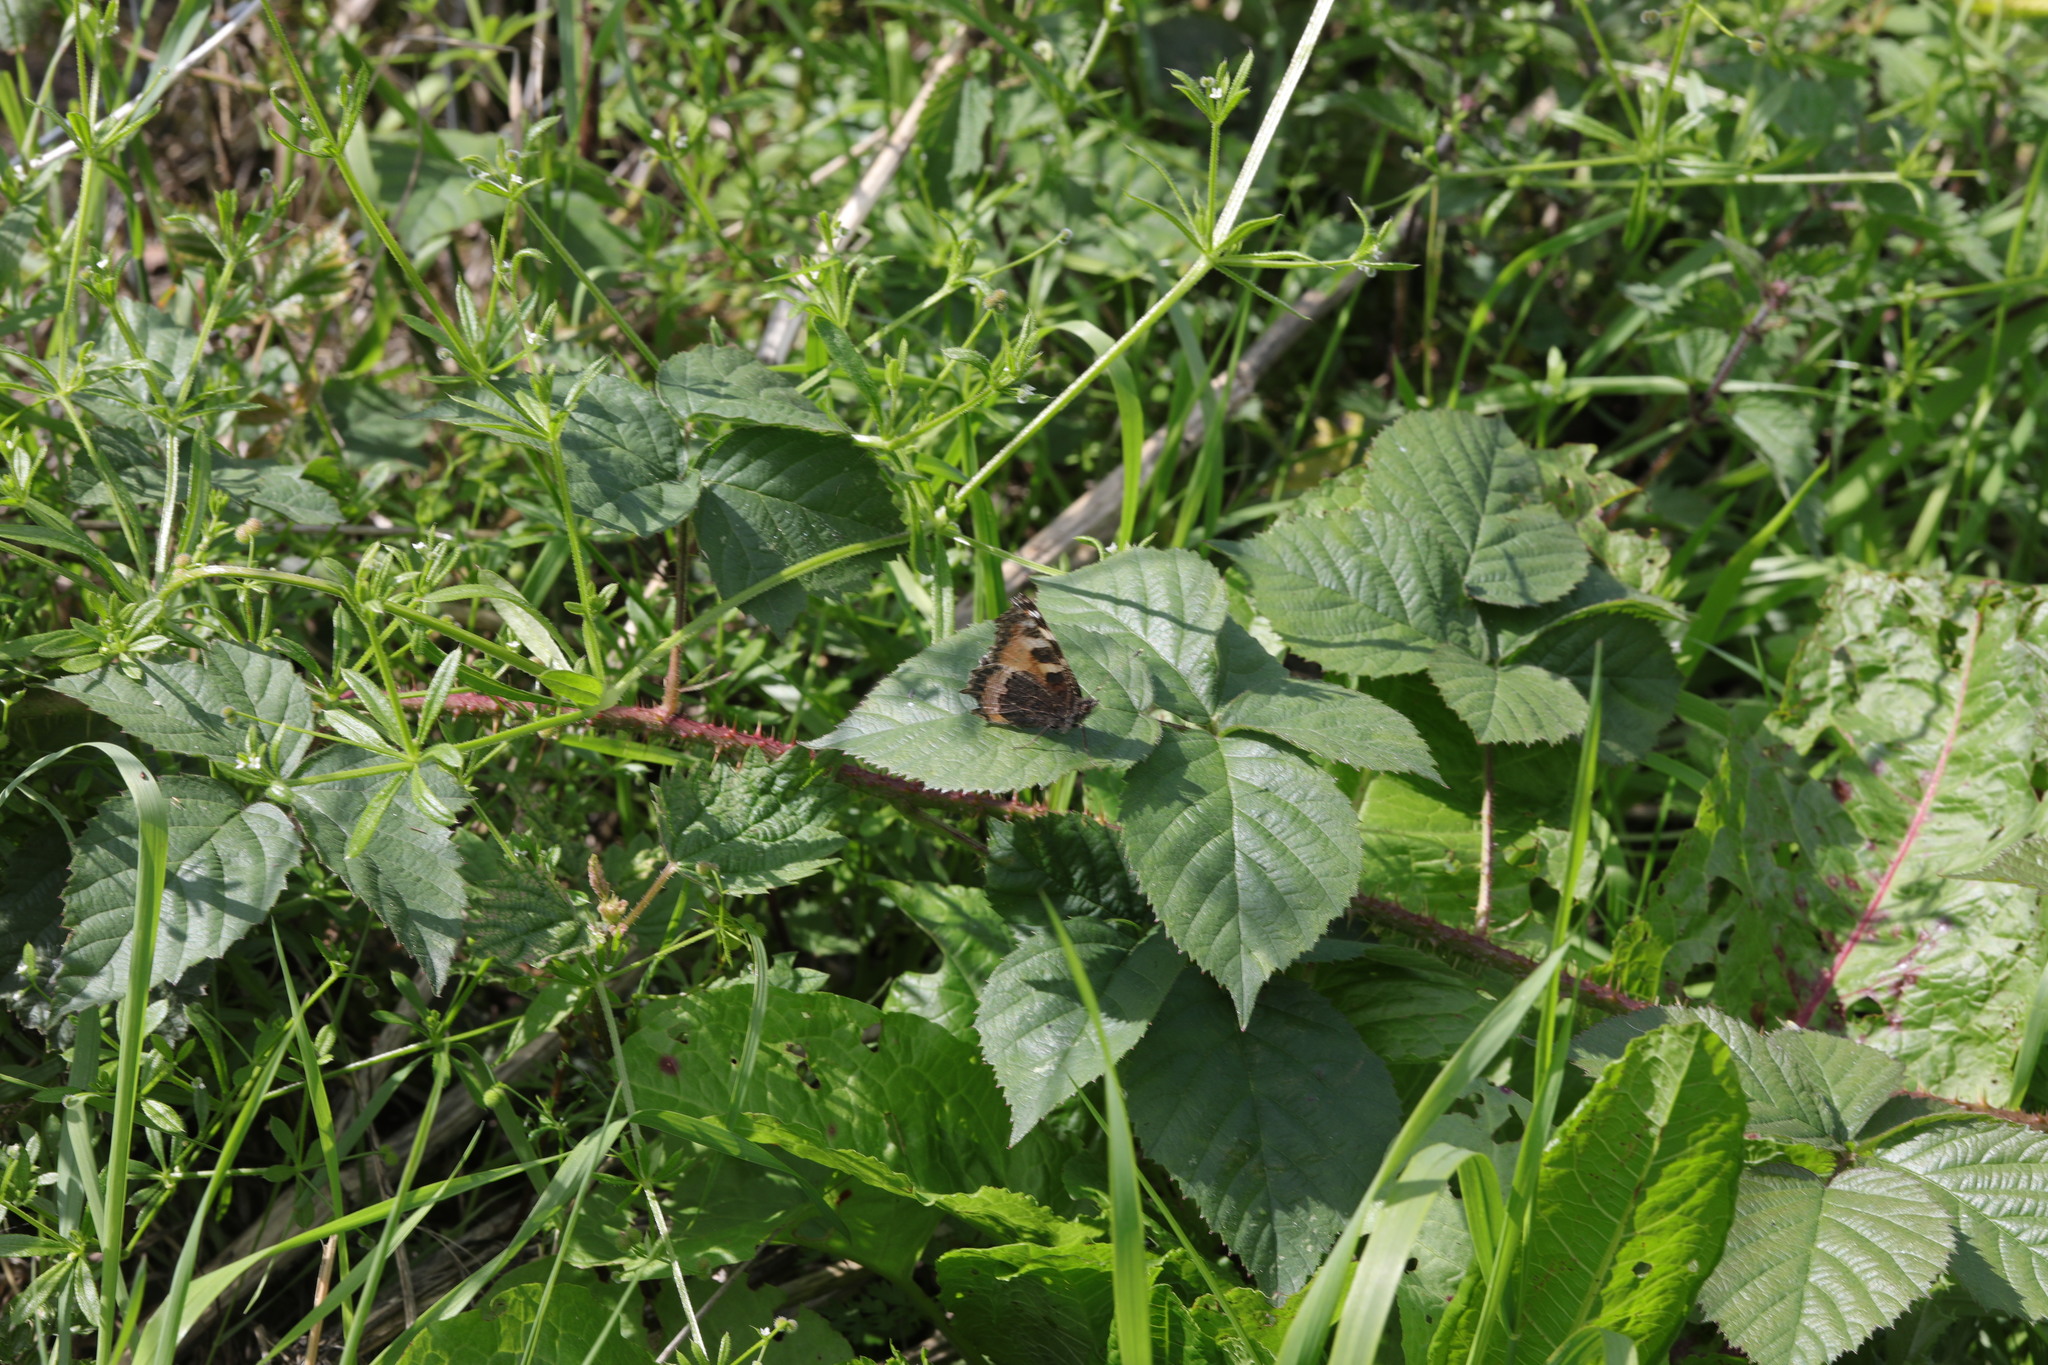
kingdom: Animalia
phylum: Arthropoda
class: Insecta
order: Lepidoptera
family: Nymphalidae
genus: Aglais
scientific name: Aglais urticae
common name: Small tortoiseshell
